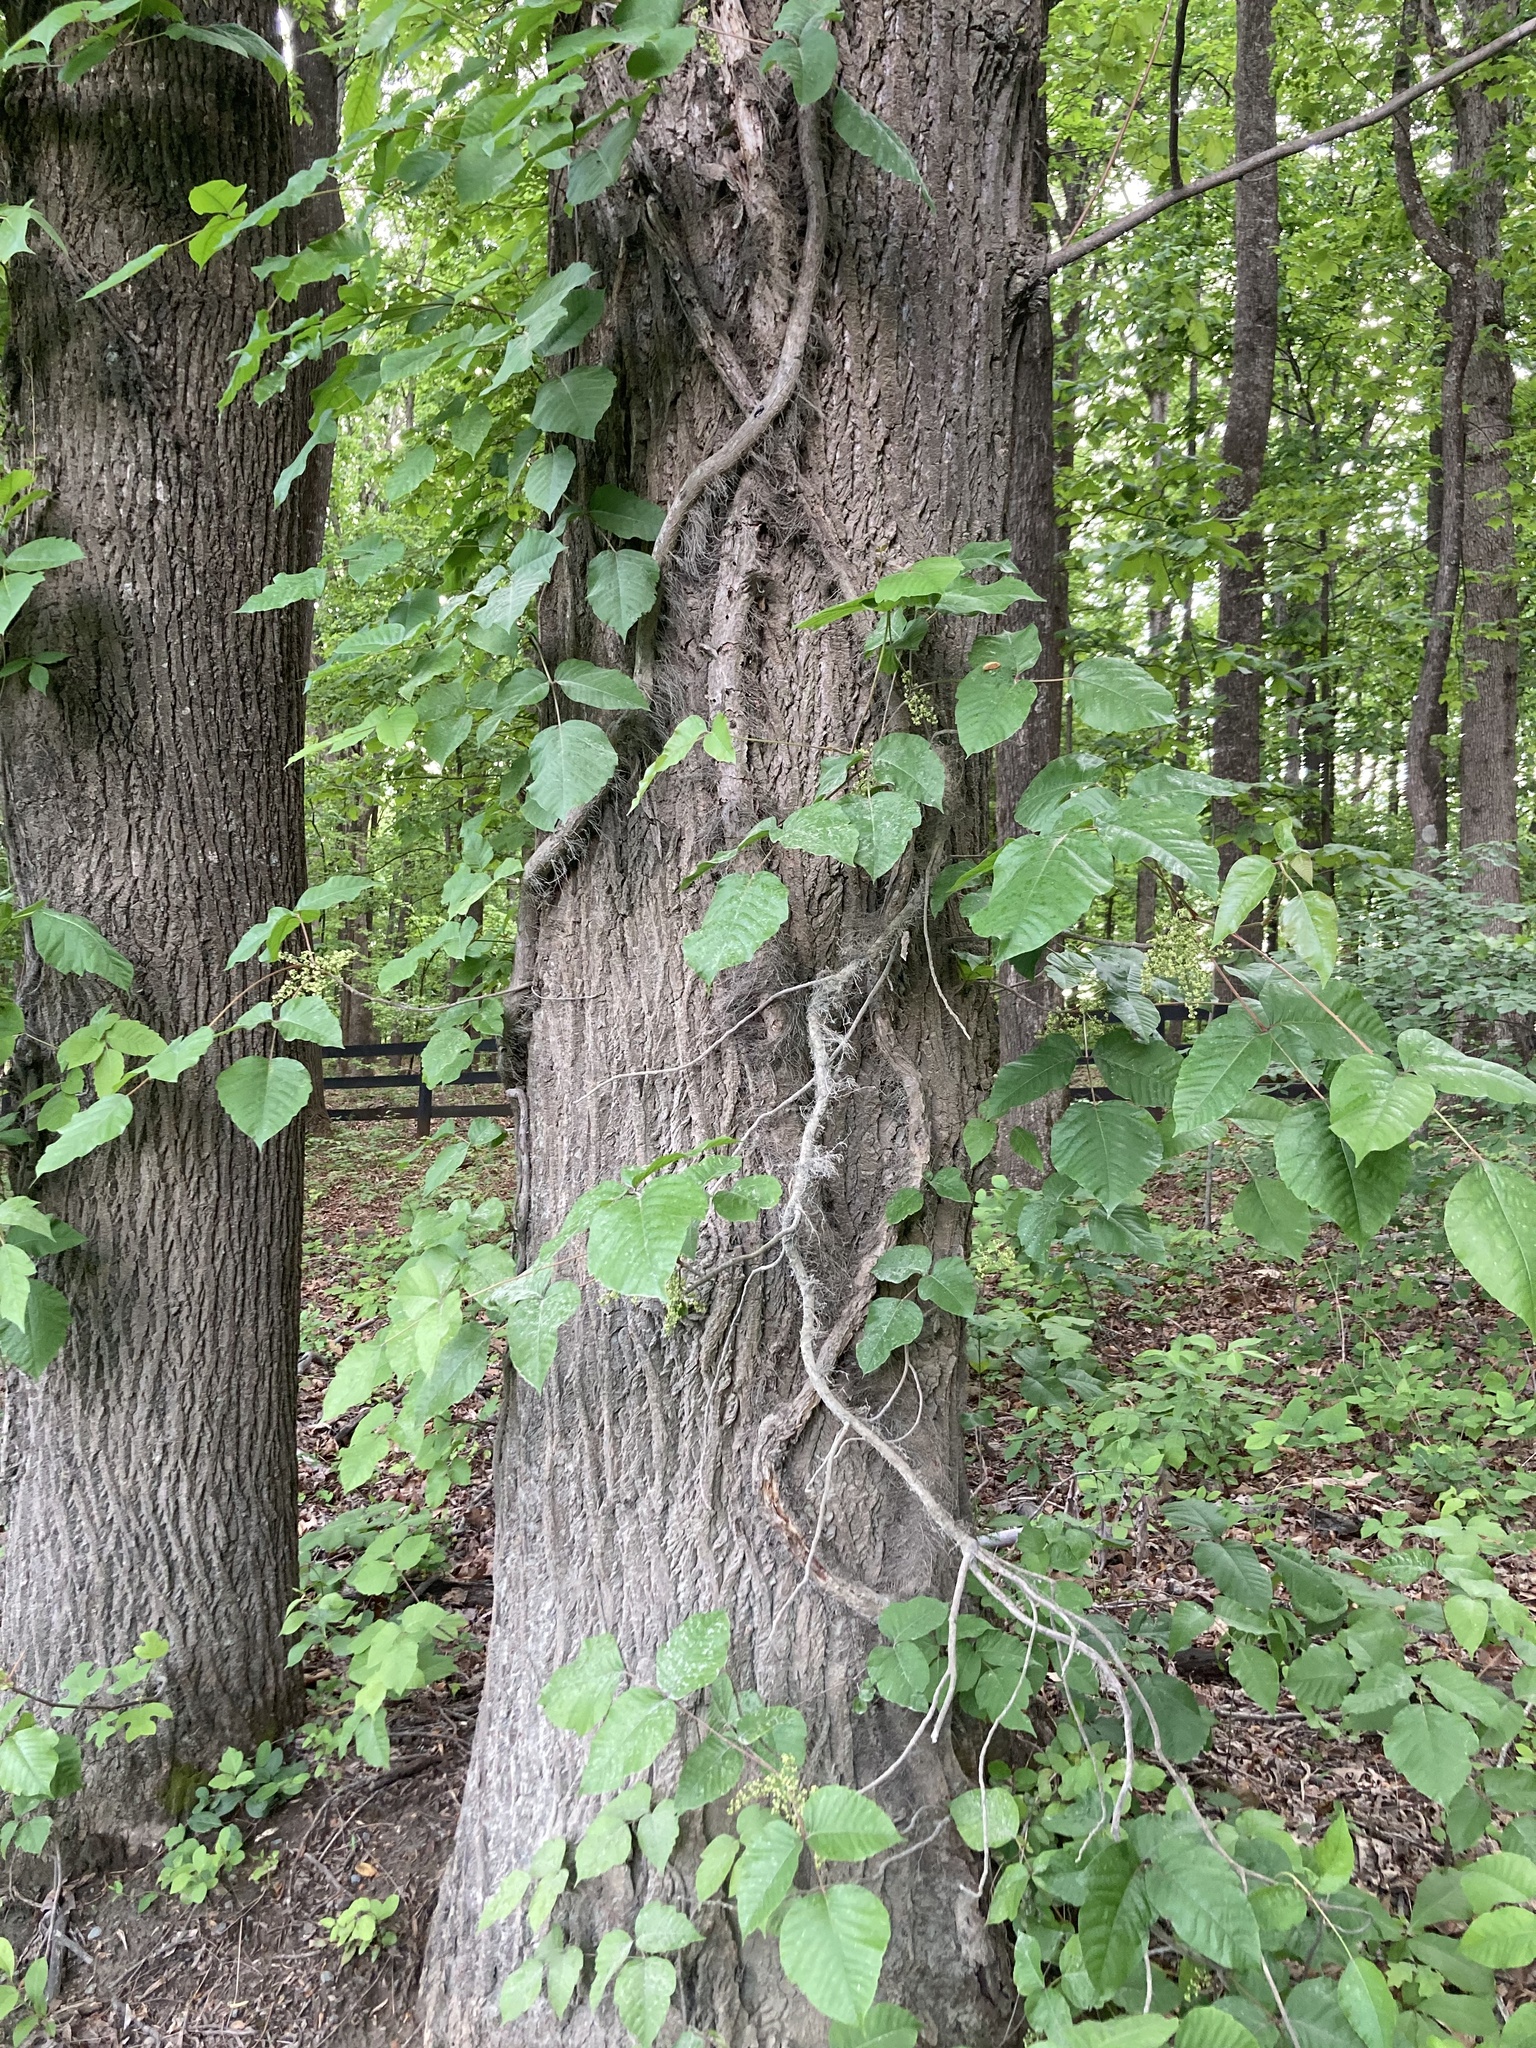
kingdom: Plantae
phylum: Tracheophyta
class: Magnoliopsida
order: Sapindales
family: Anacardiaceae
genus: Toxicodendron
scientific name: Toxicodendron radicans
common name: Poison ivy
